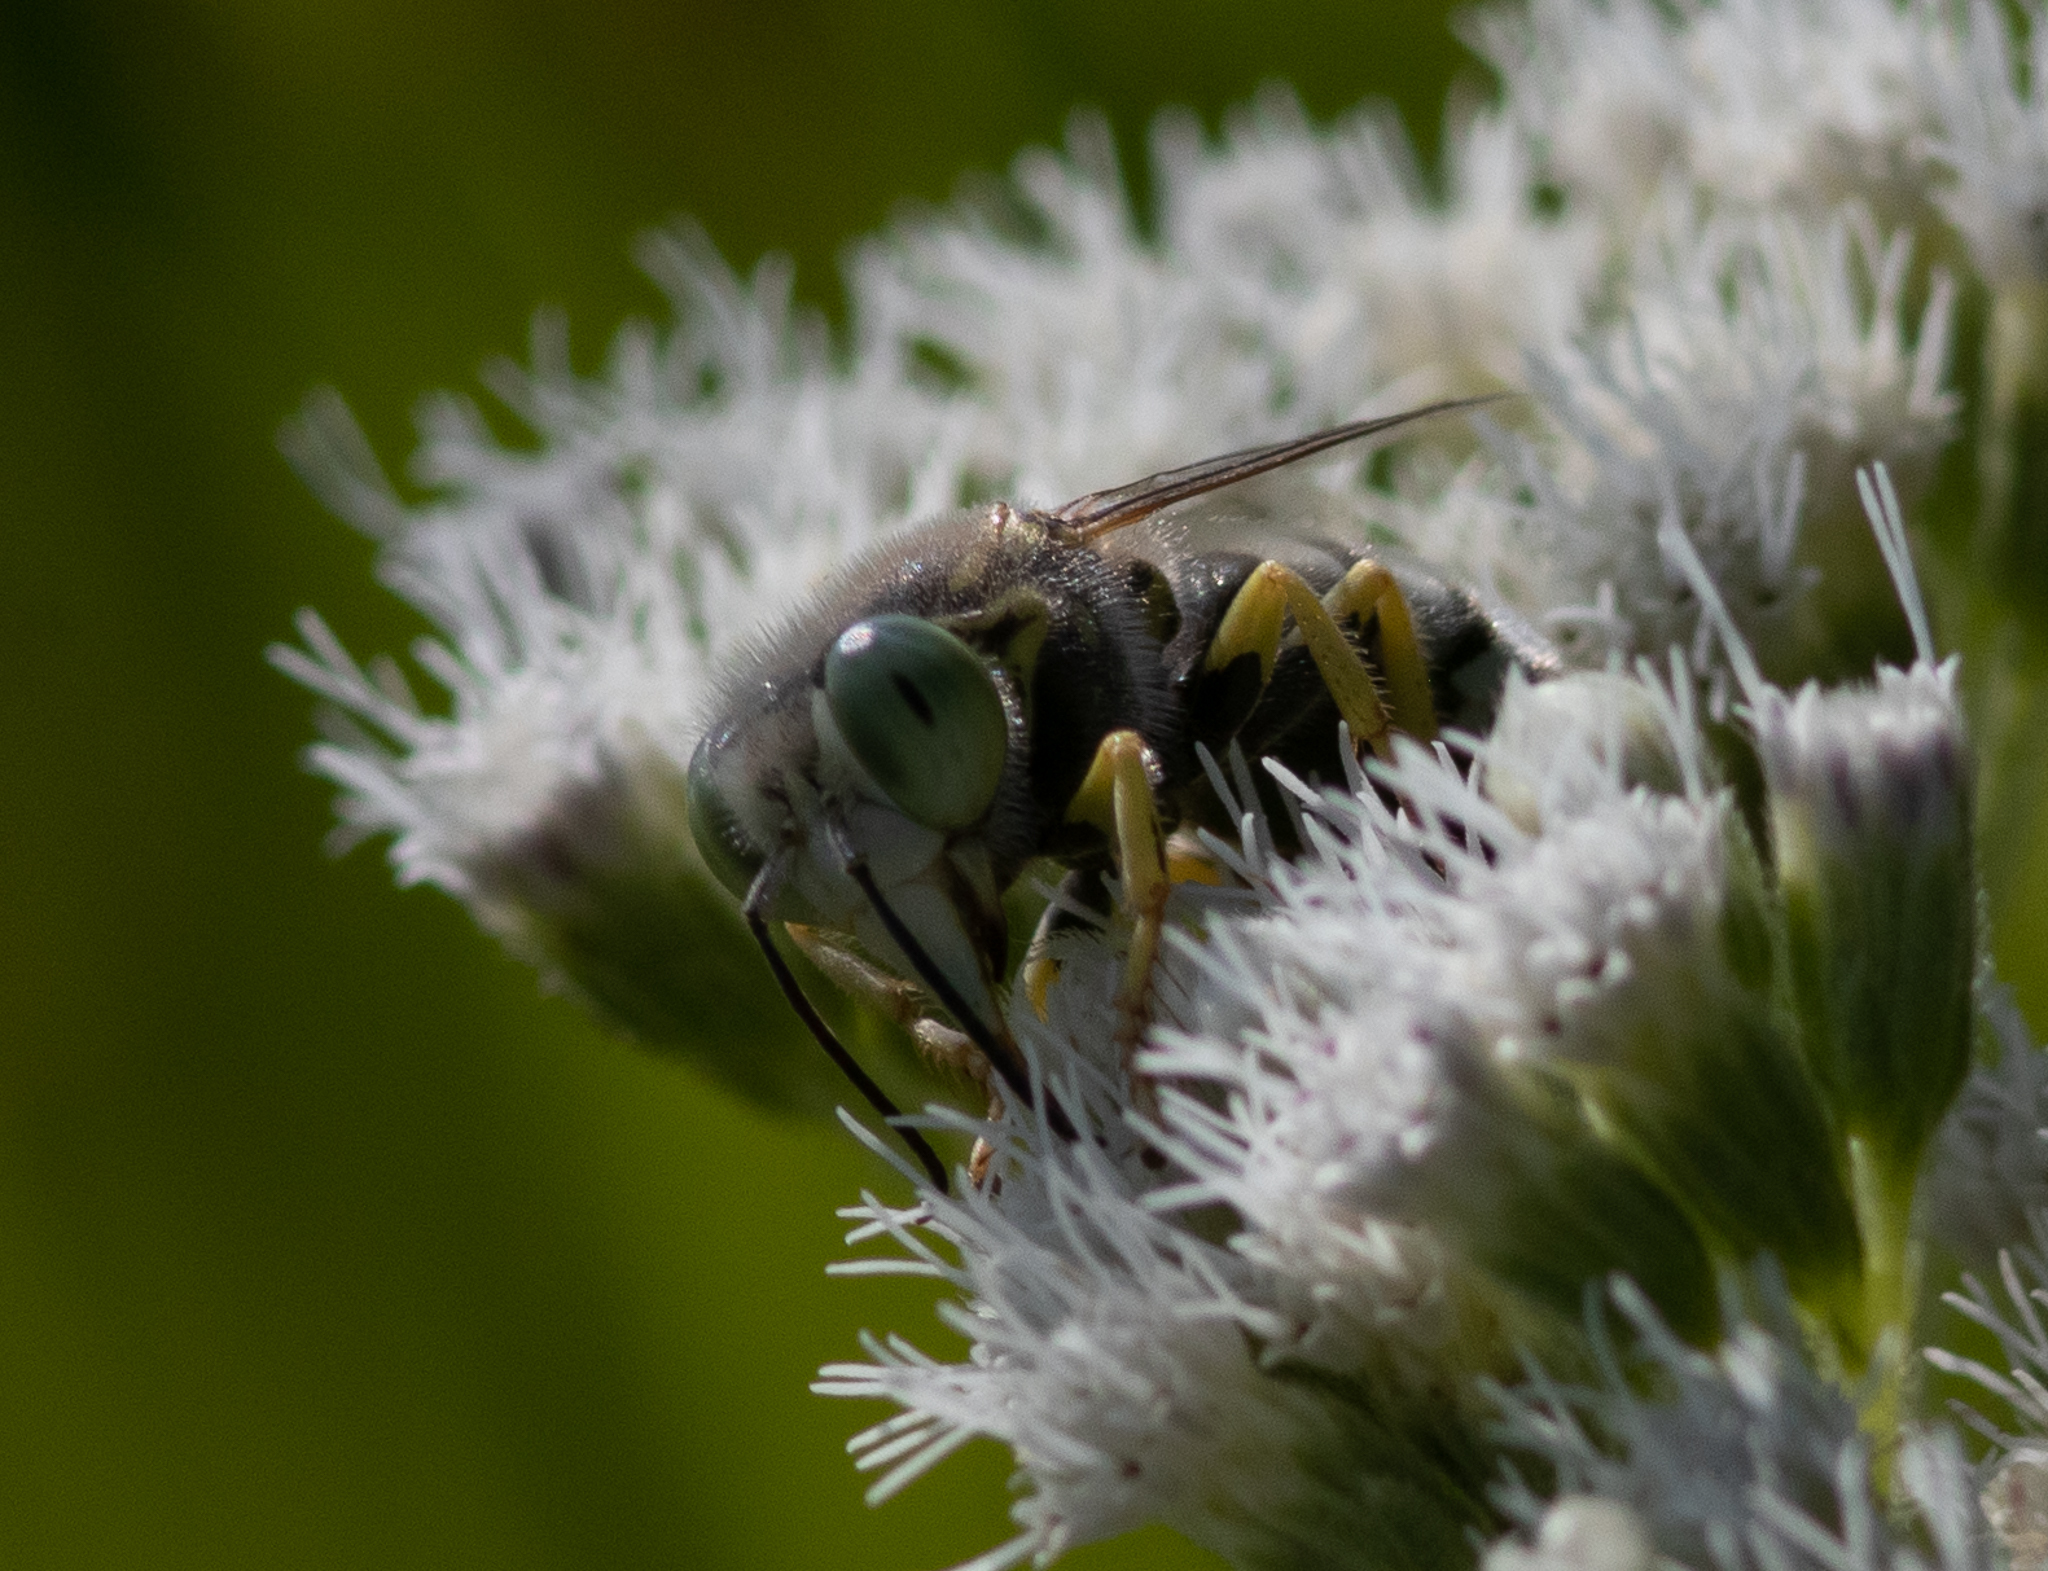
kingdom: Animalia
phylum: Arthropoda
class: Insecta
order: Hymenoptera
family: Crabronidae
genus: Bembix
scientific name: Bembix americana
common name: American sand wasp
